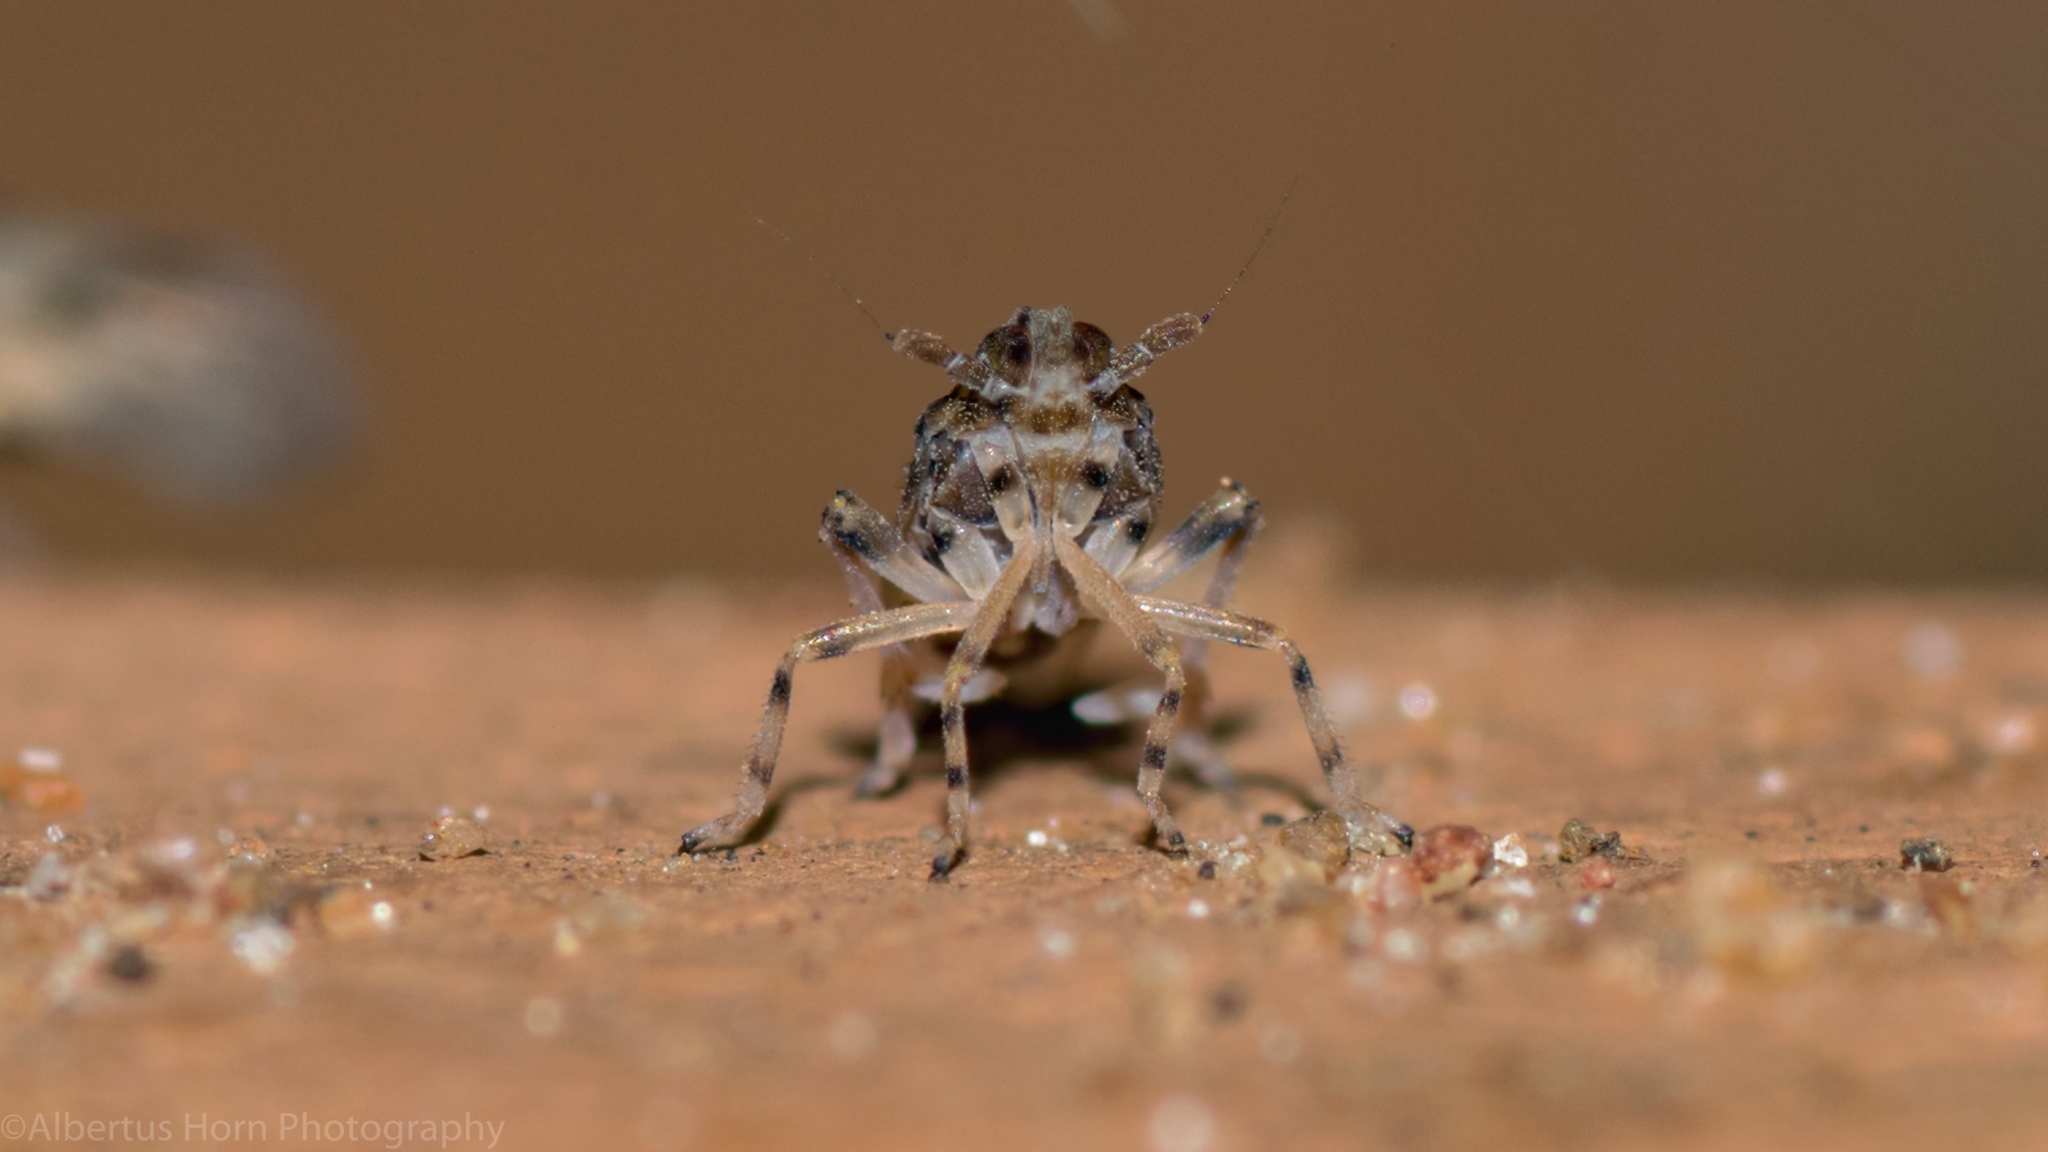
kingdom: Animalia
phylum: Arthropoda
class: Insecta
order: Hemiptera
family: Delphacidae
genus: Megamelus
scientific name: Megamelus scutellaris
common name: South american planthopper
